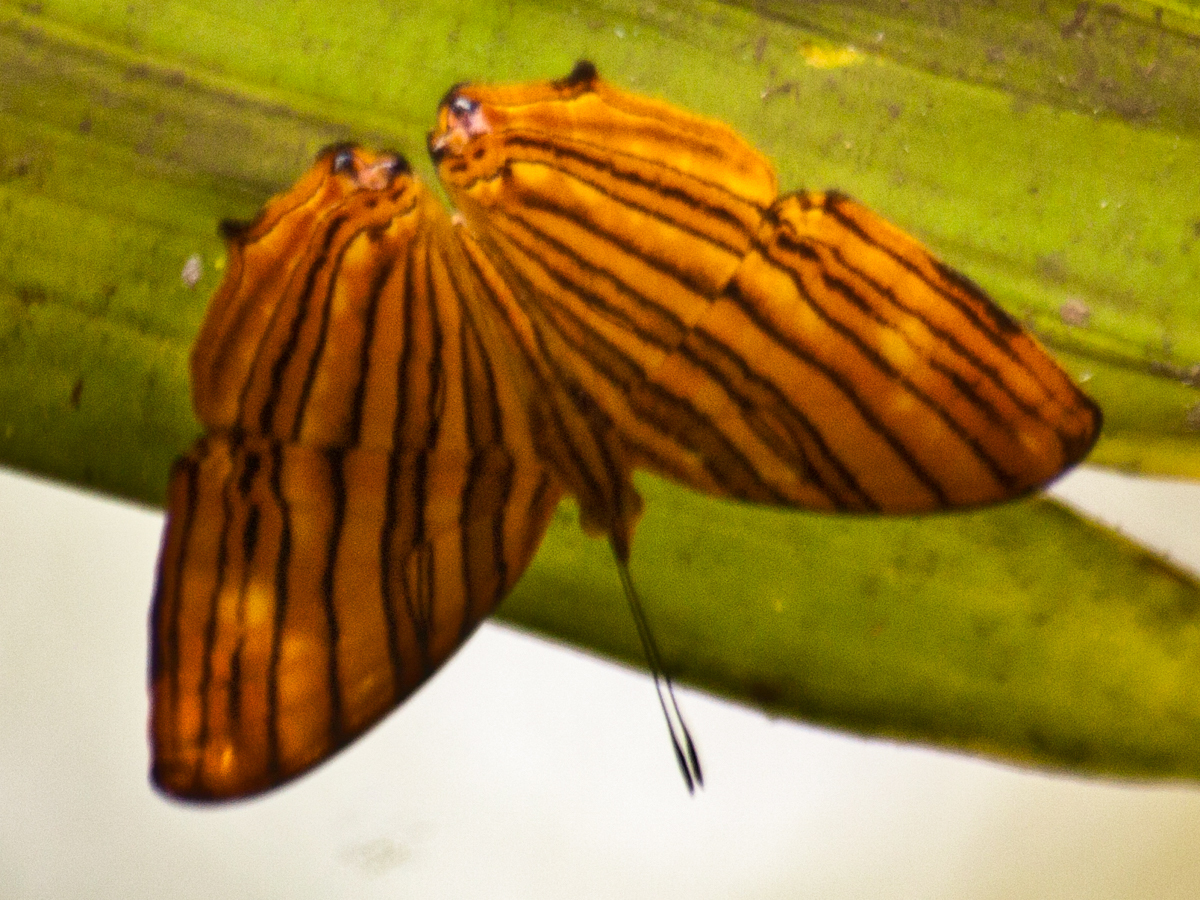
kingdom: Animalia
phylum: Arthropoda
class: Insecta
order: Lepidoptera
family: Nymphalidae
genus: Chersonesia
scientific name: Chersonesia risa
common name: Common maplet
